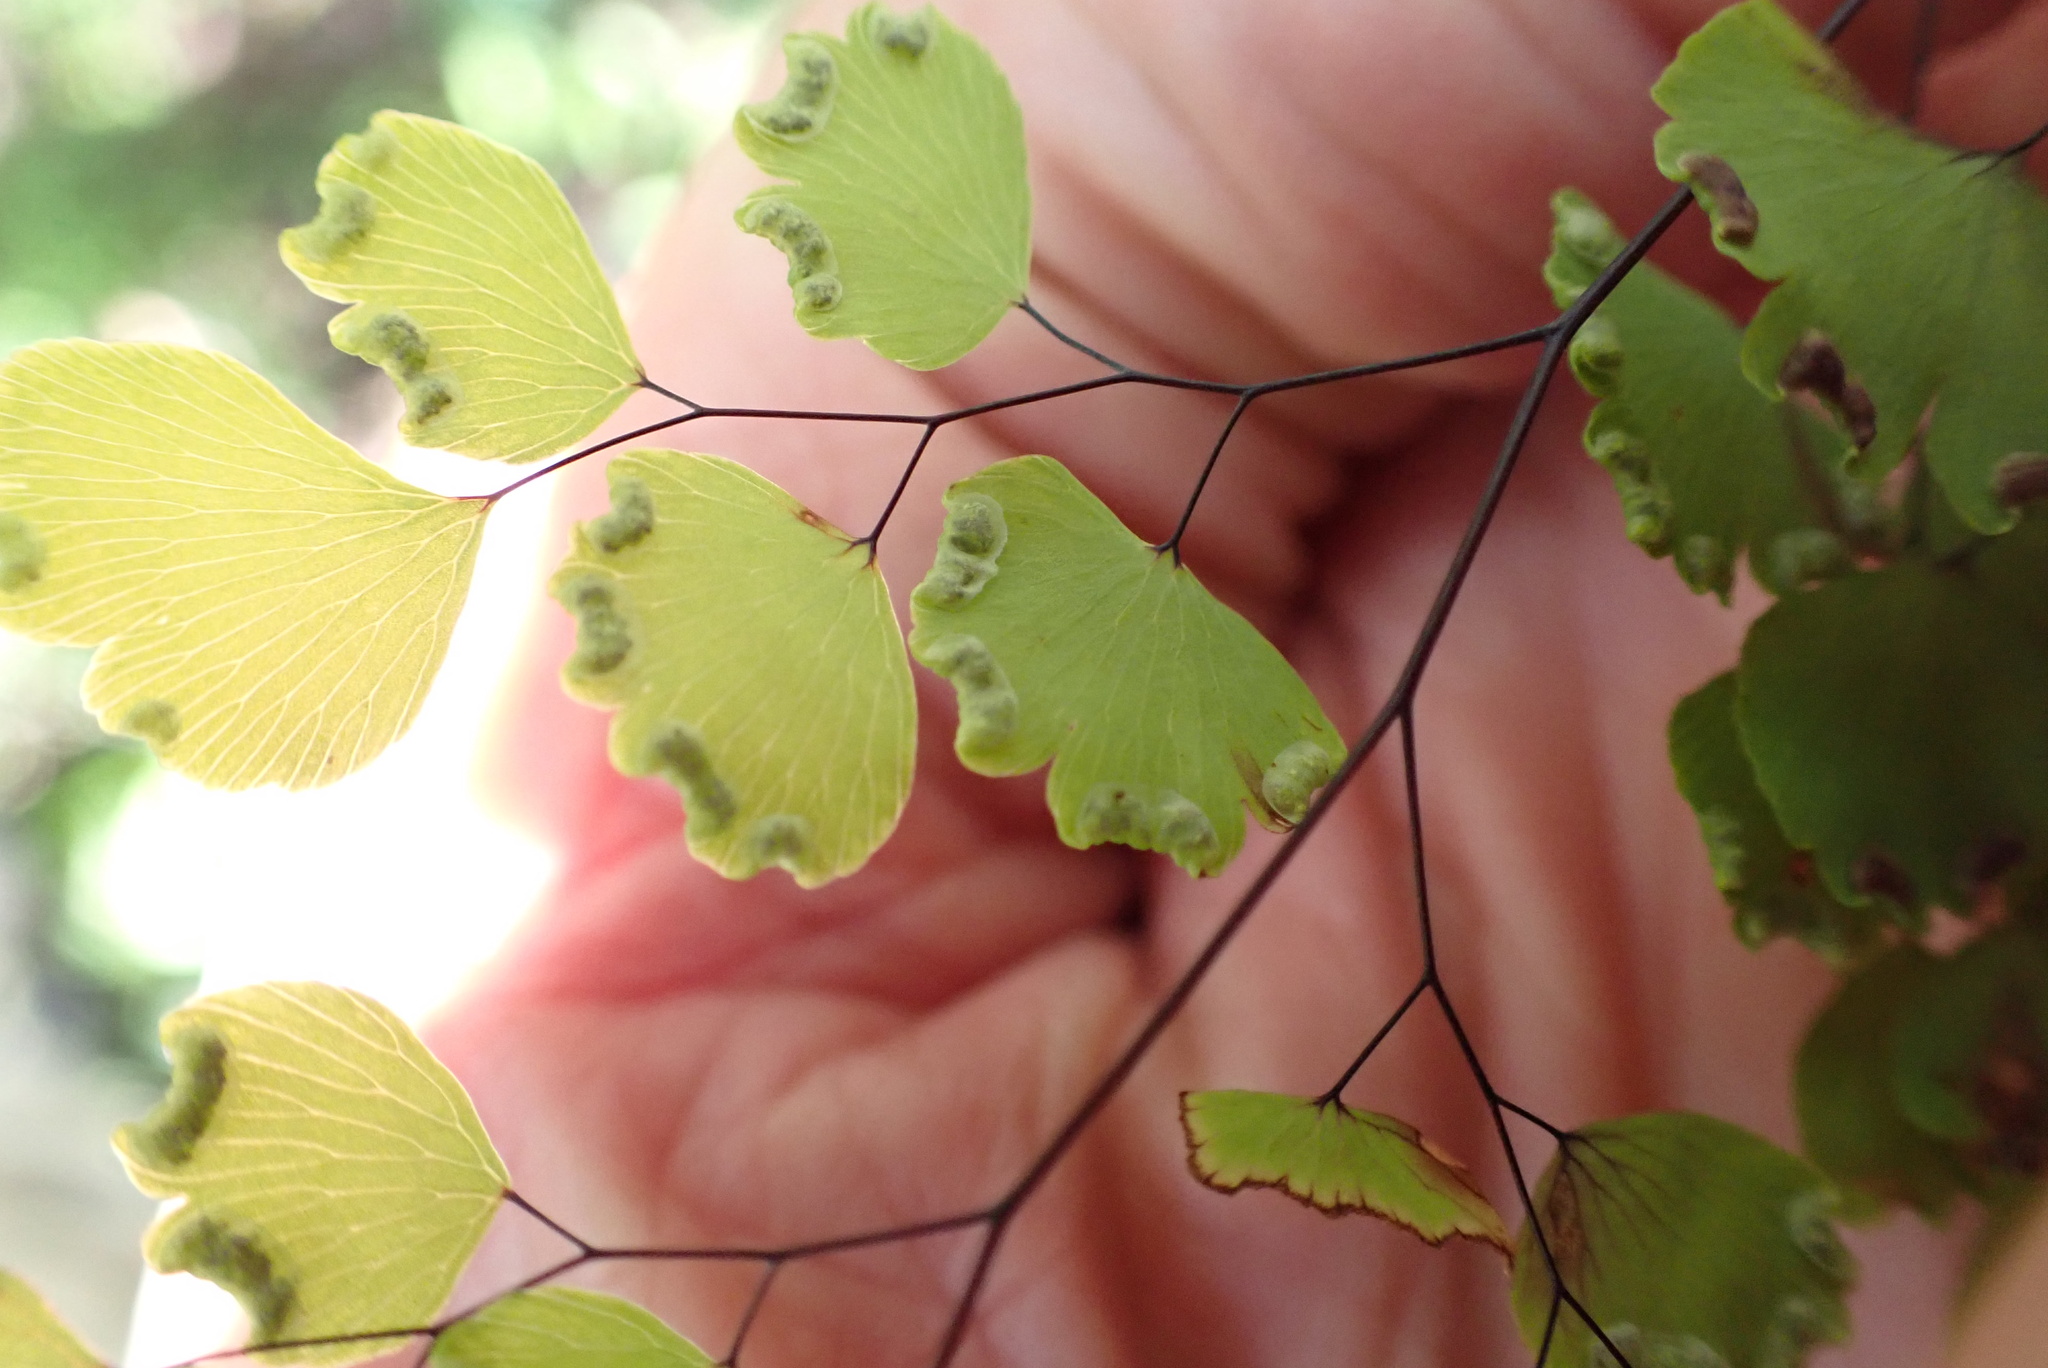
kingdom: Plantae
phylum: Tracheophyta
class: Polypodiopsida
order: Polypodiales
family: Pteridaceae
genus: Adiantum
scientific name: Adiantum poiretii
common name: Mexican maidenhair
